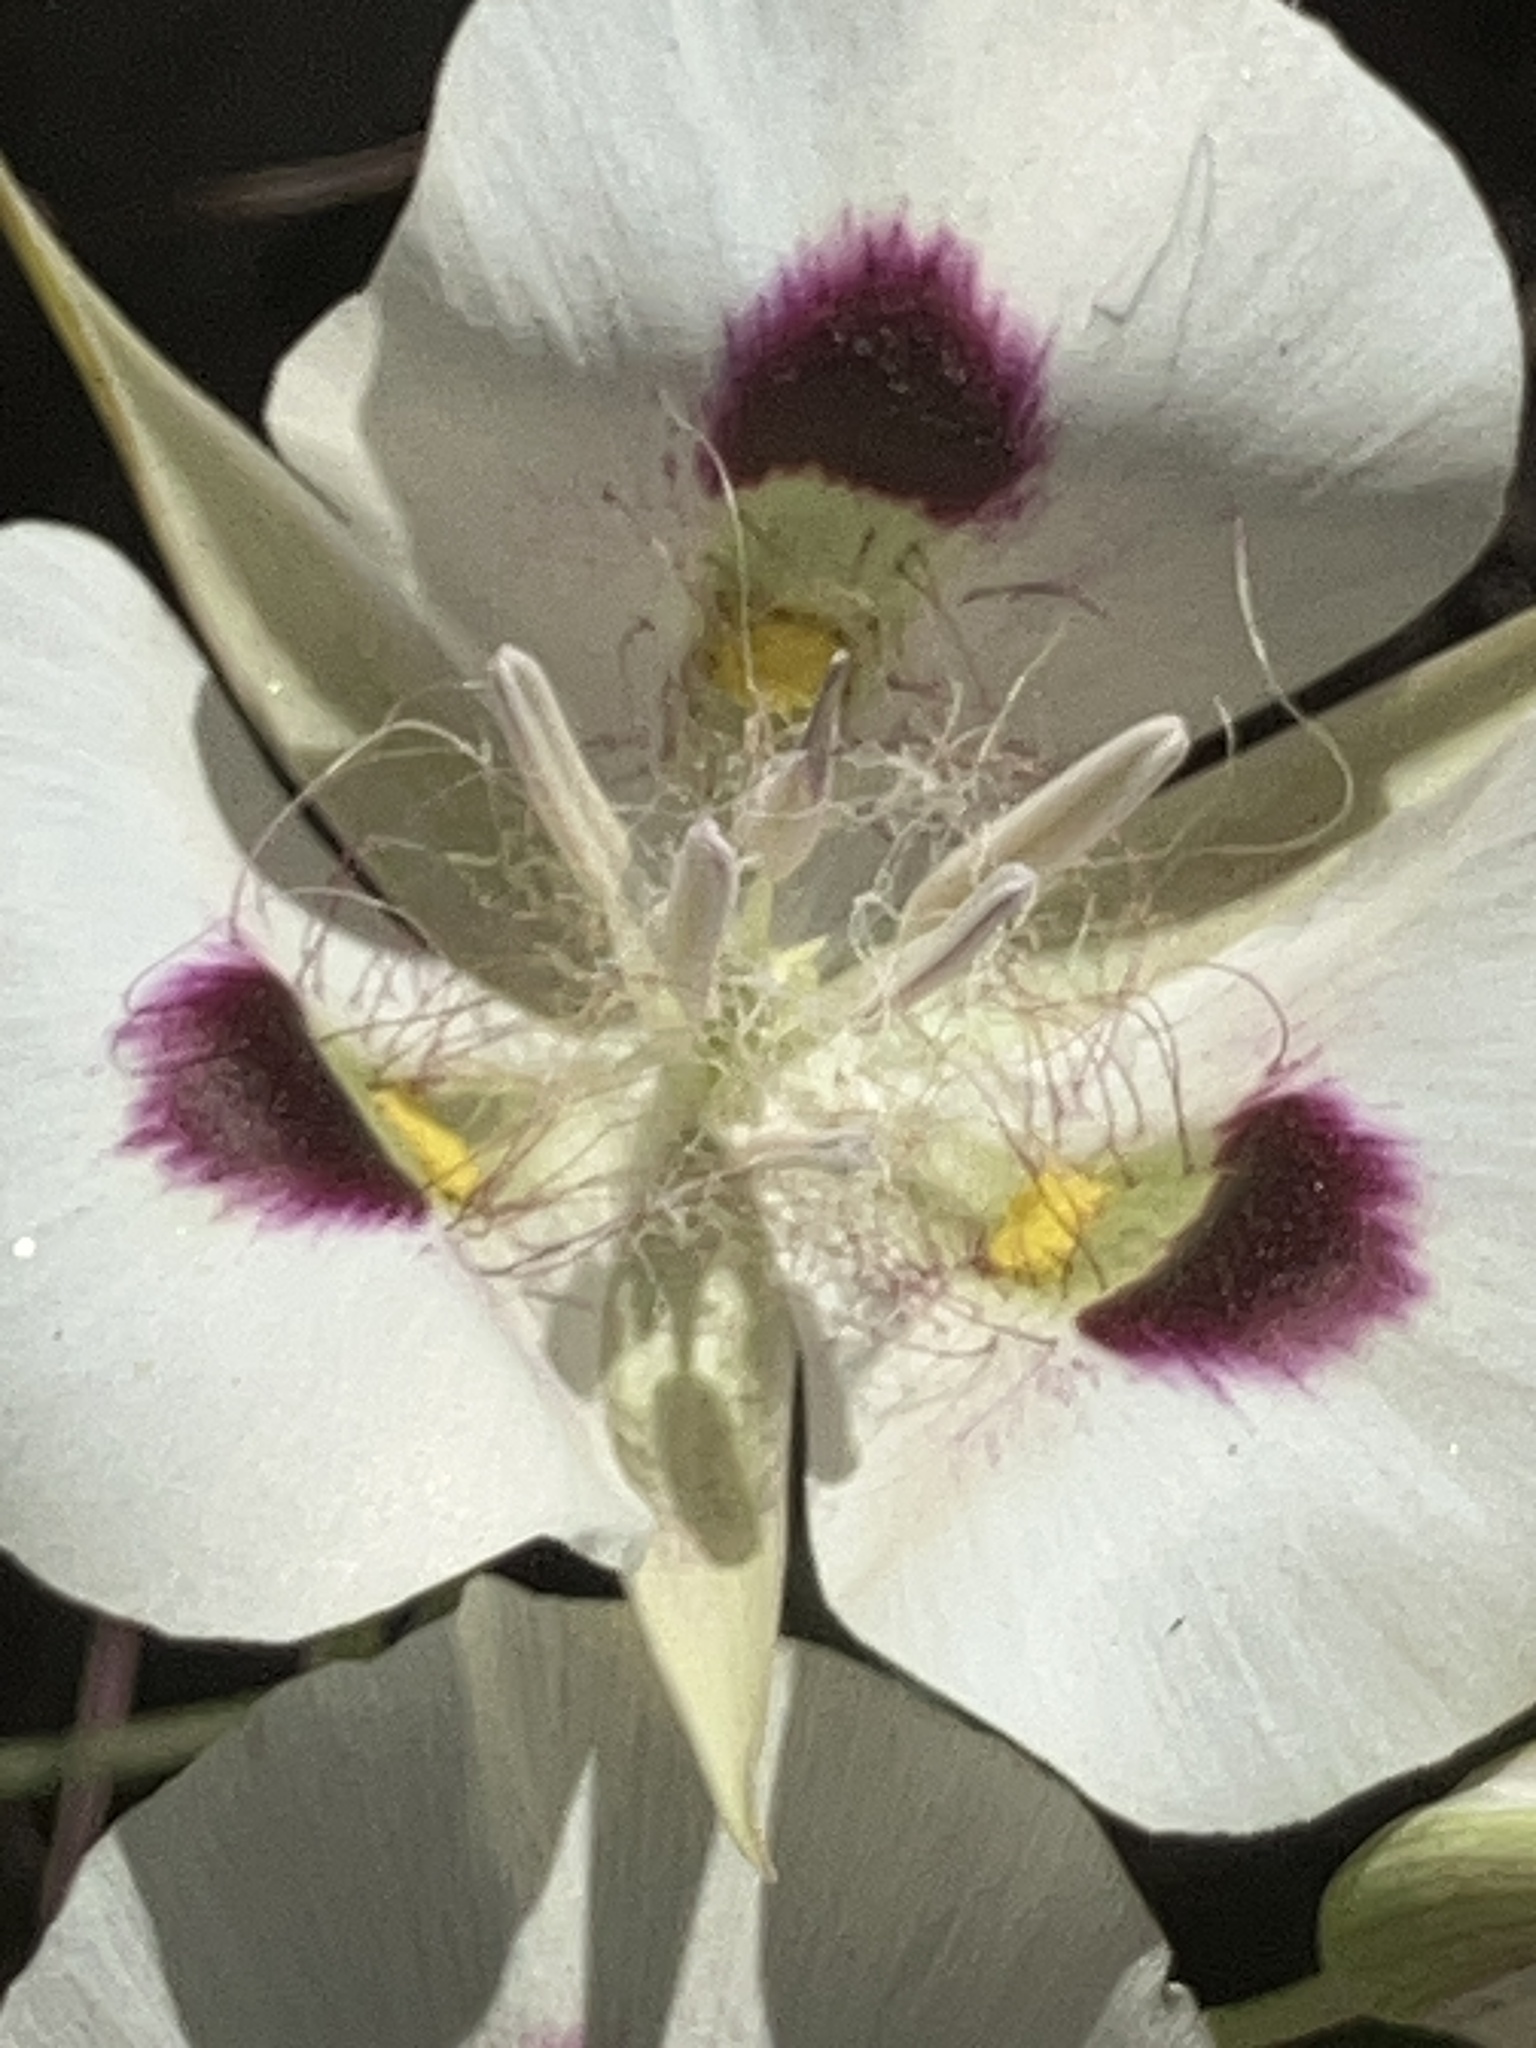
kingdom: Plantae
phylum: Tracheophyta
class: Liliopsida
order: Liliales
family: Liliaceae
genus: Calochortus
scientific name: Calochortus eurycarpus
